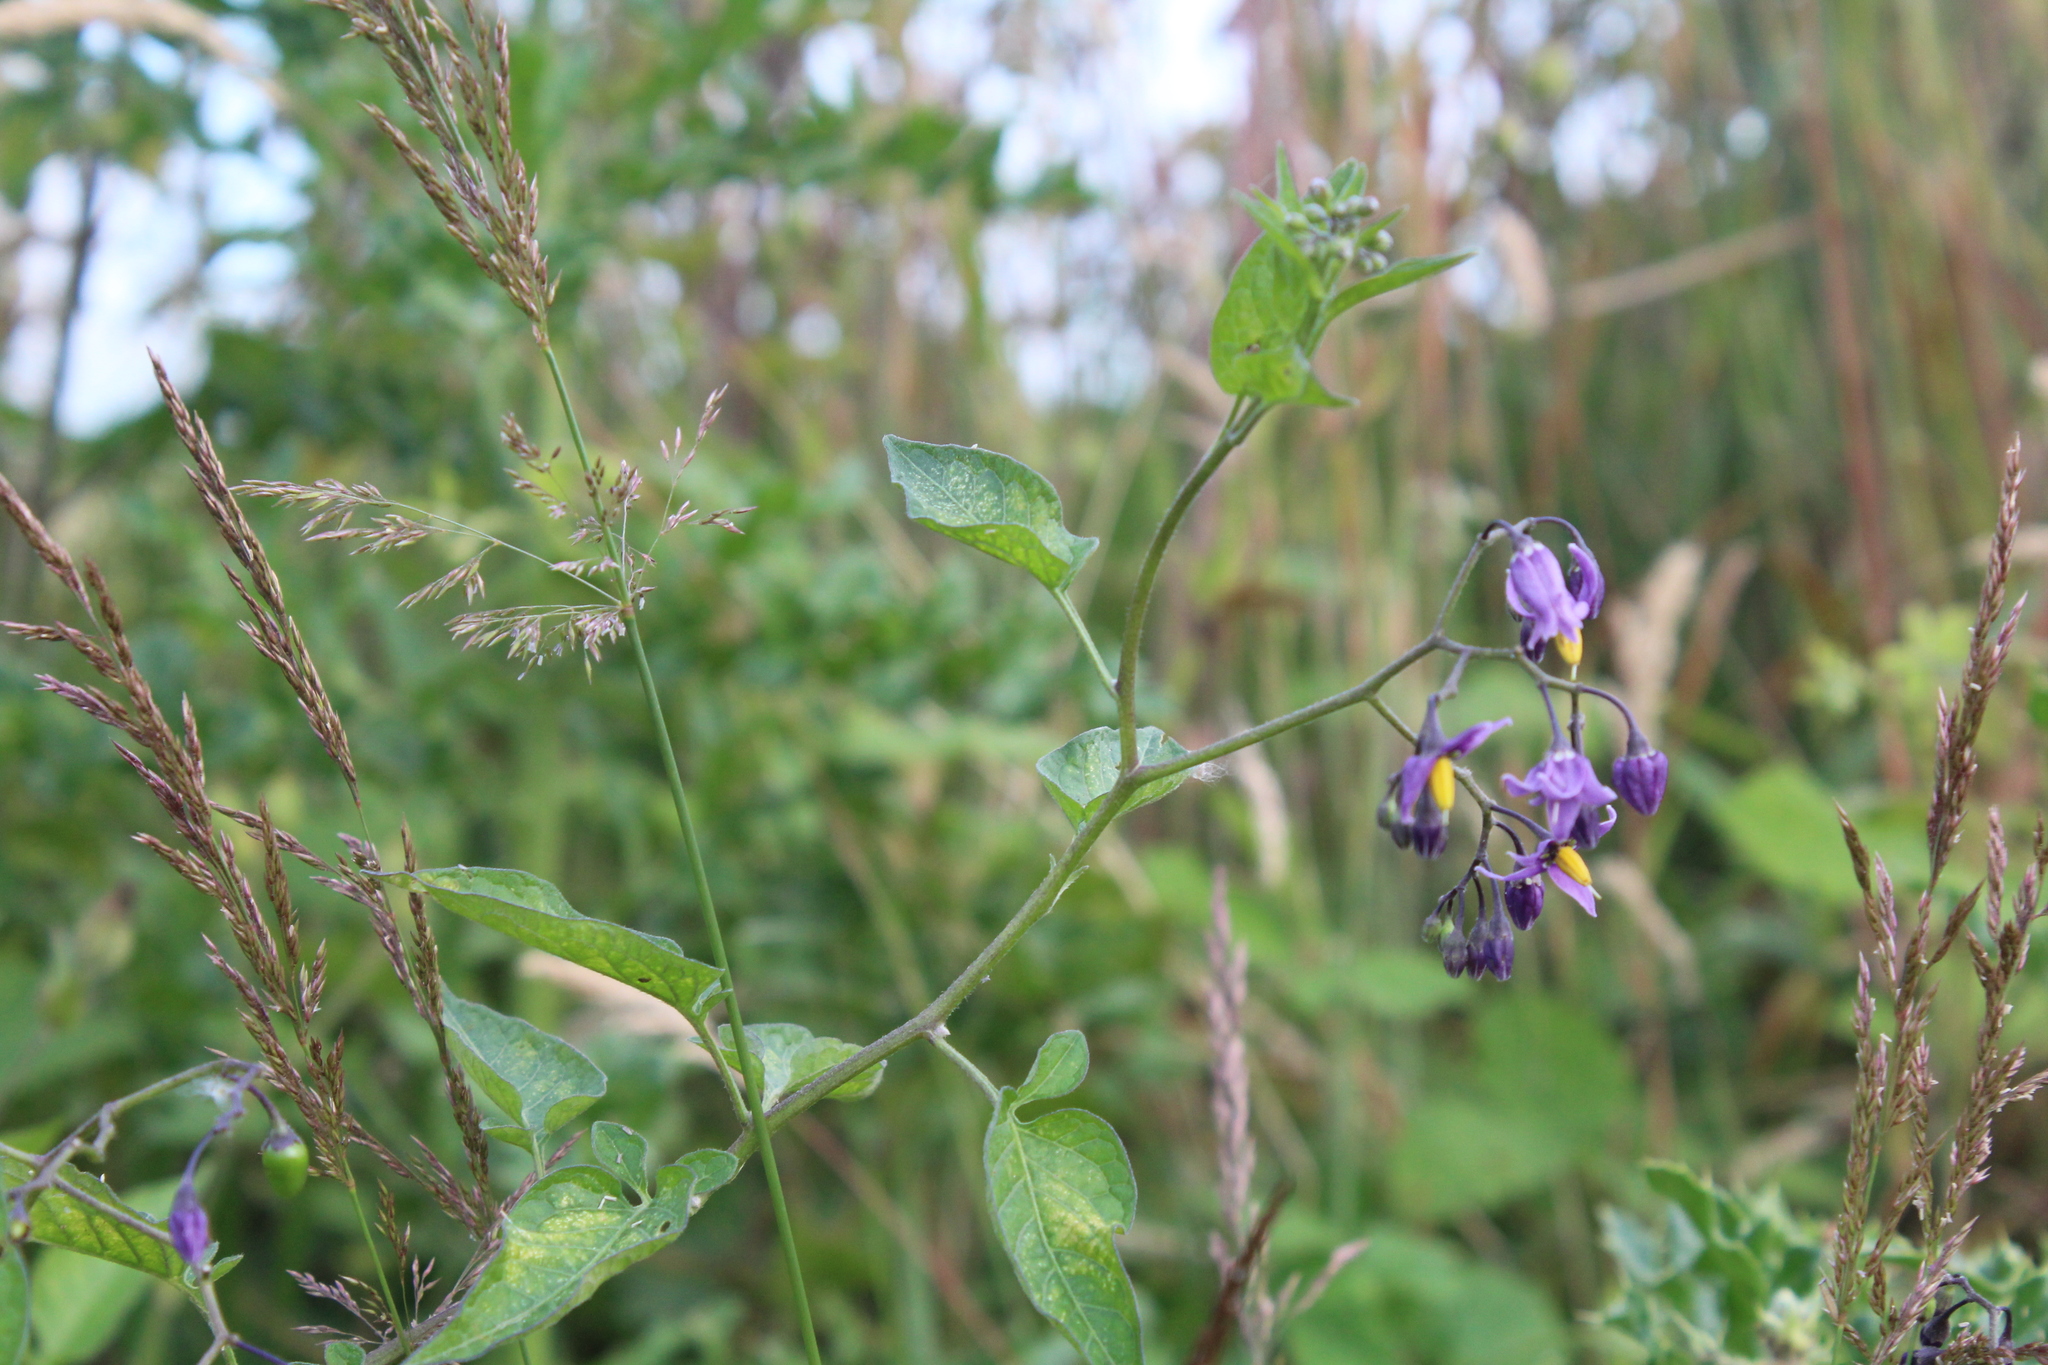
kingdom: Plantae
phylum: Tracheophyta
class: Magnoliopsida
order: Solanales
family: Solanaceae
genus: Solanum
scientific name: Solanum dulcamara
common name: Climbing nightshade
